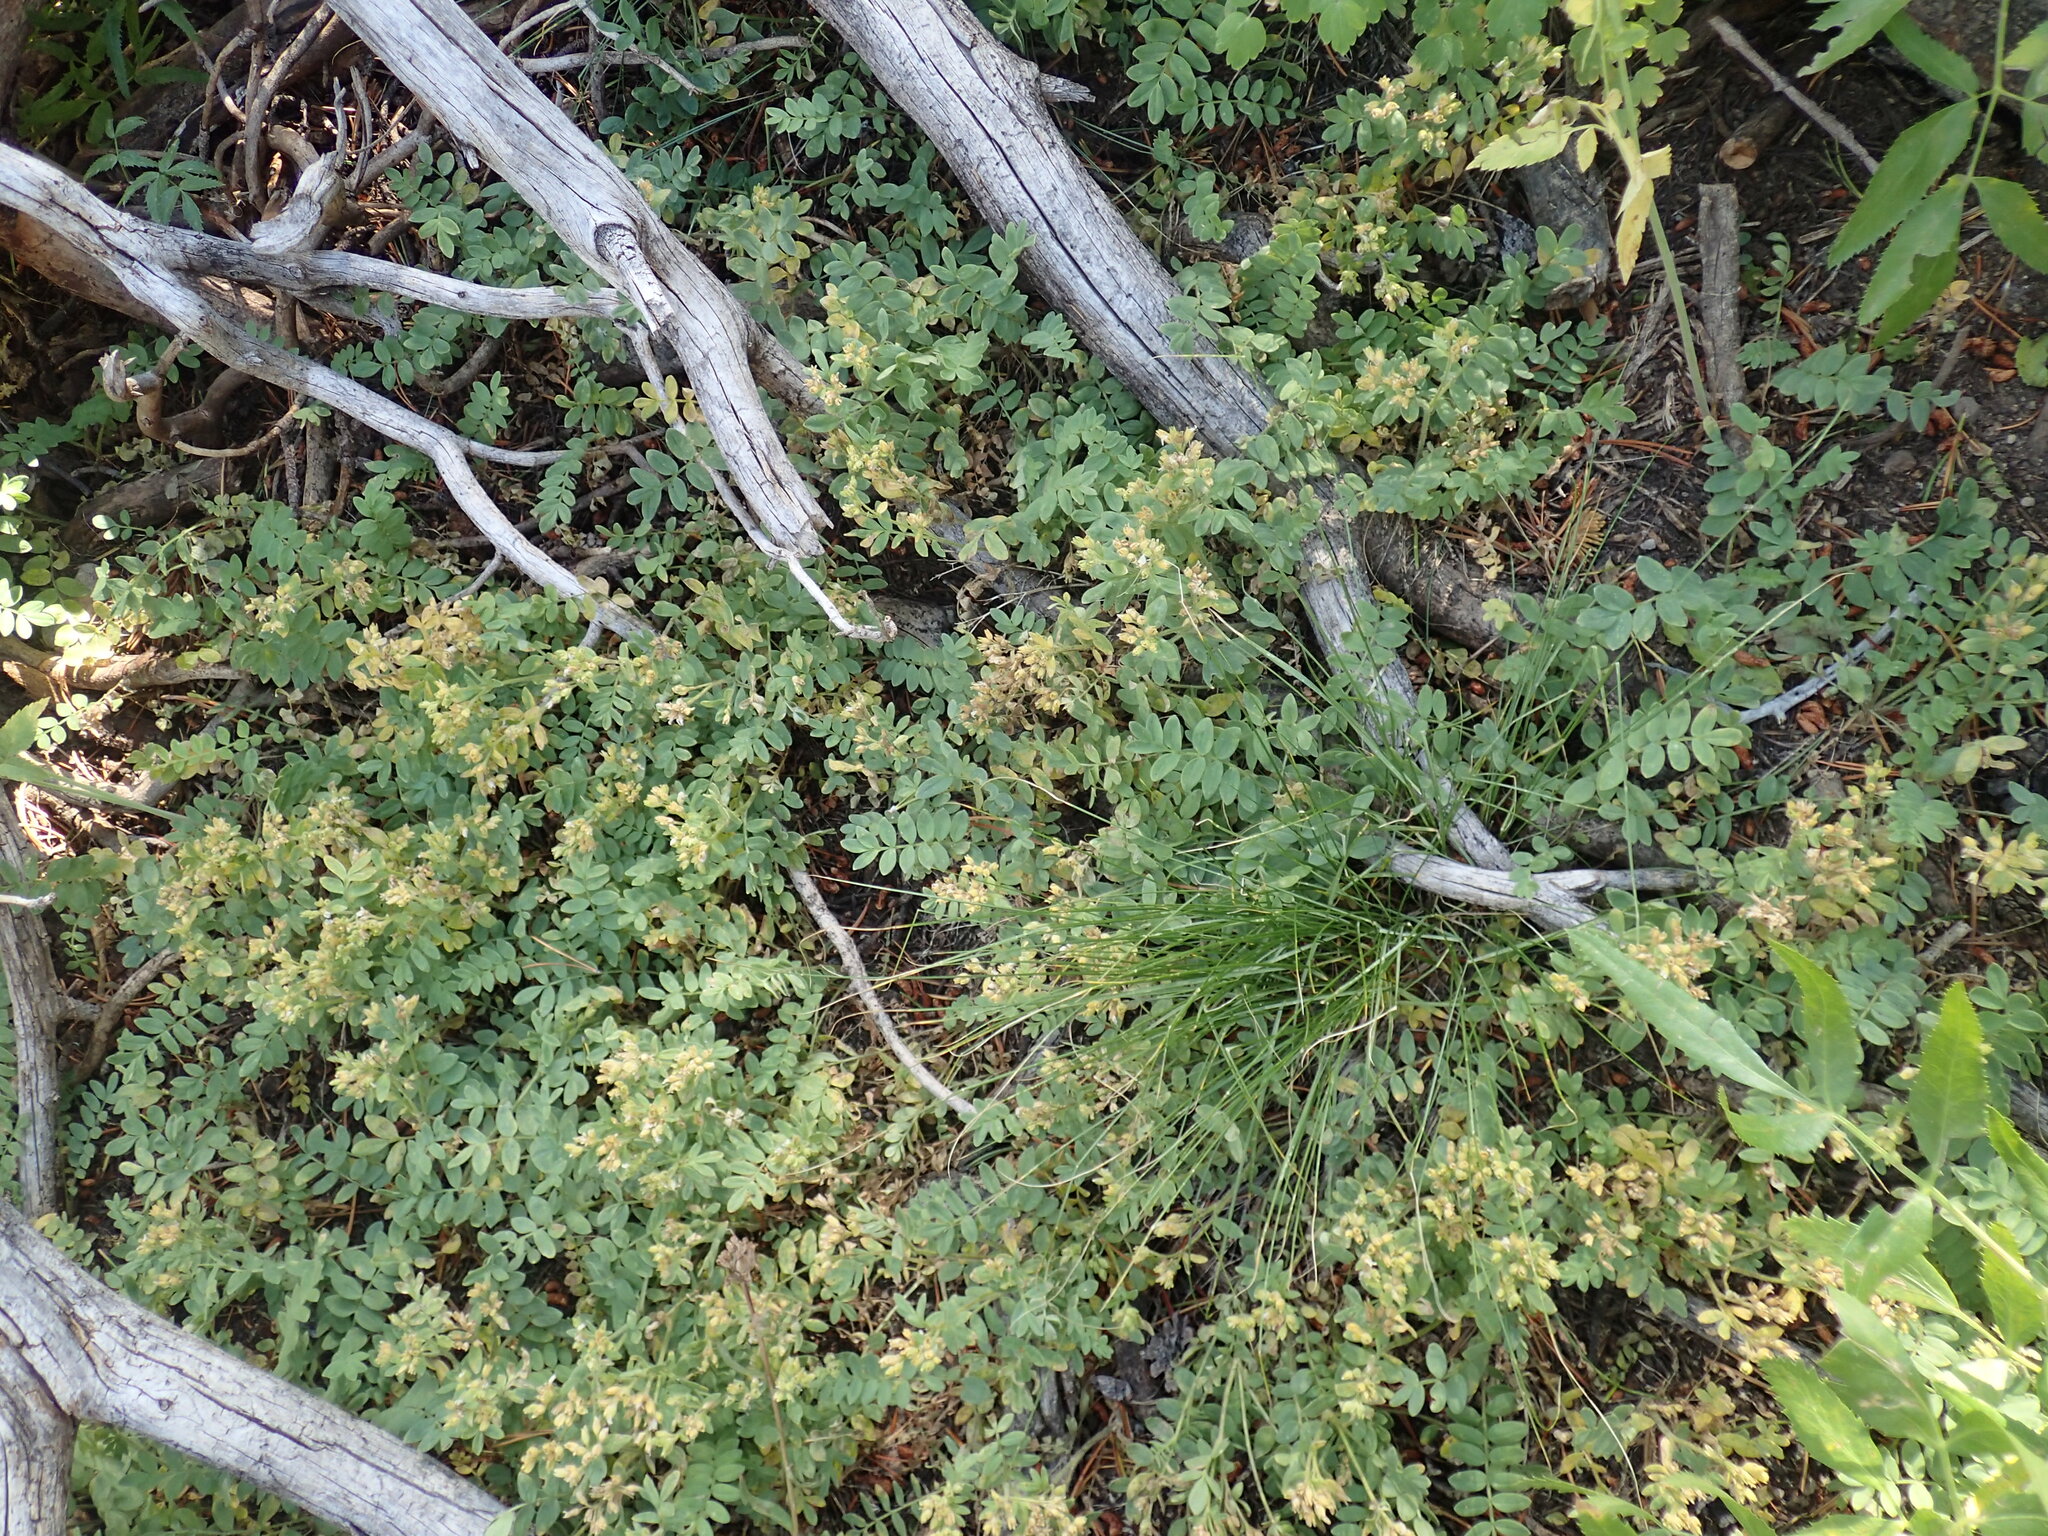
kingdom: Plantae
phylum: Tracheophyta
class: Magnoliopsida
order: Ericales
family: Polemoniaceae
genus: Polemonium
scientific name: Polemonium californicum
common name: California jacob's ladder
